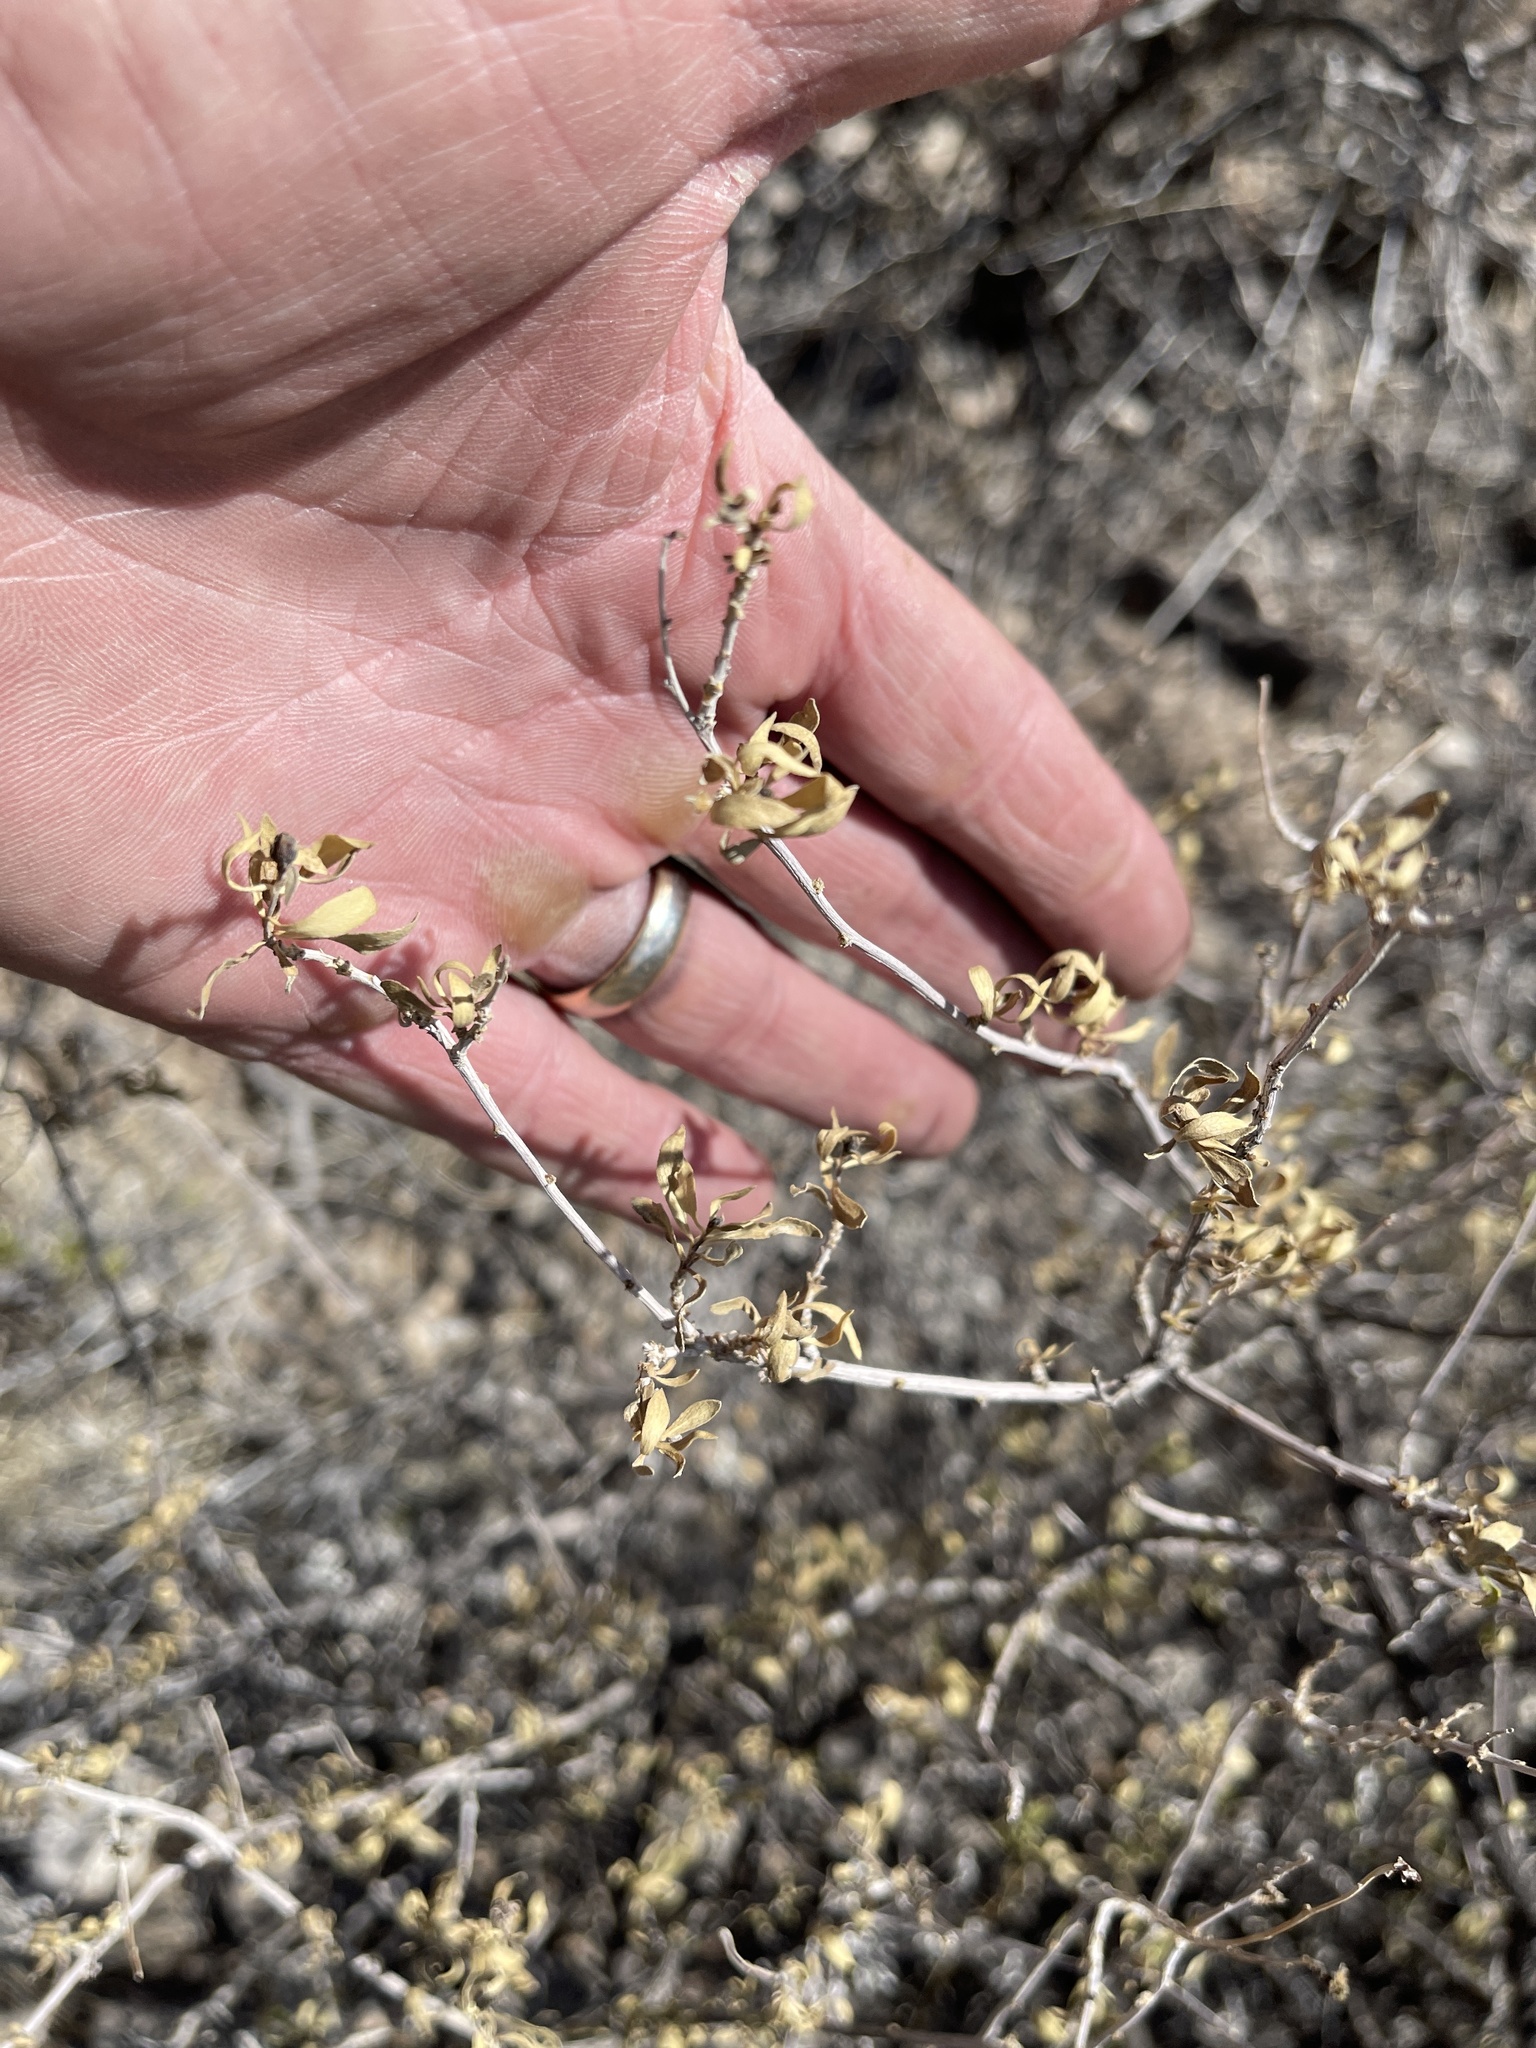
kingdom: Plantae
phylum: Tracheophyta
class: Magnoliopsida
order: Asterales
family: Asteraceae
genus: Flourensia
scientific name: Flourensia cernua
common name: Varnishbush
